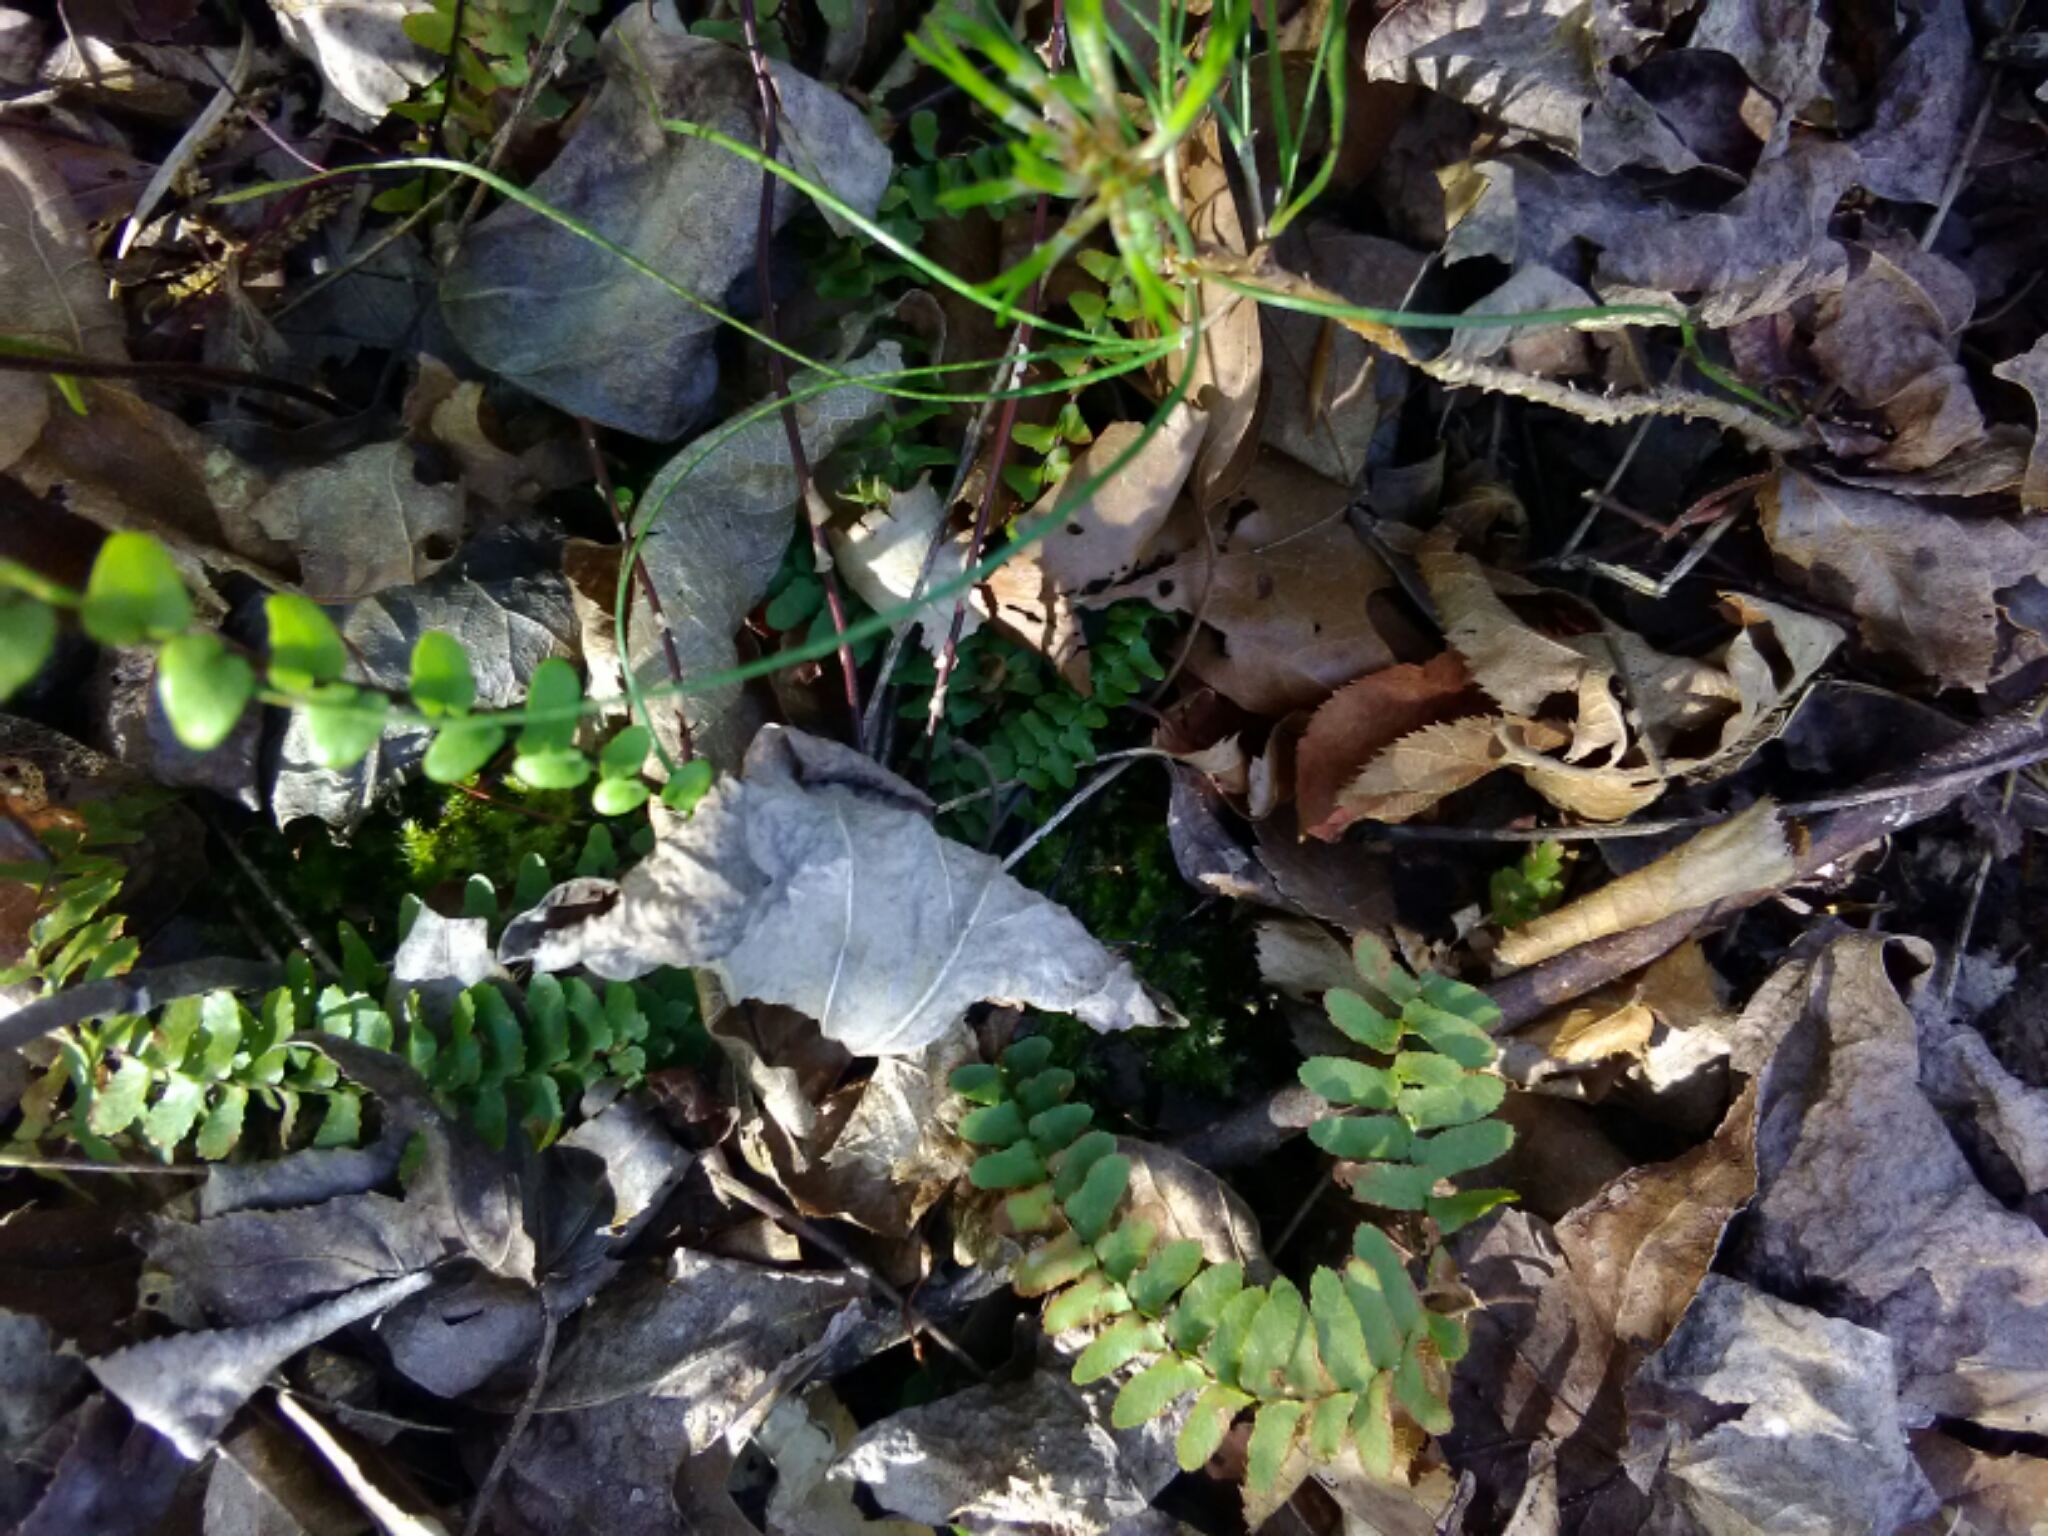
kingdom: Plantae
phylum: Tracheophyta
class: Polypodiopsida
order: Polypodiales
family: Aspleniaceae
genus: Asplenium
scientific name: Asplenium platyneuron
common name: Ebony spleenwort
